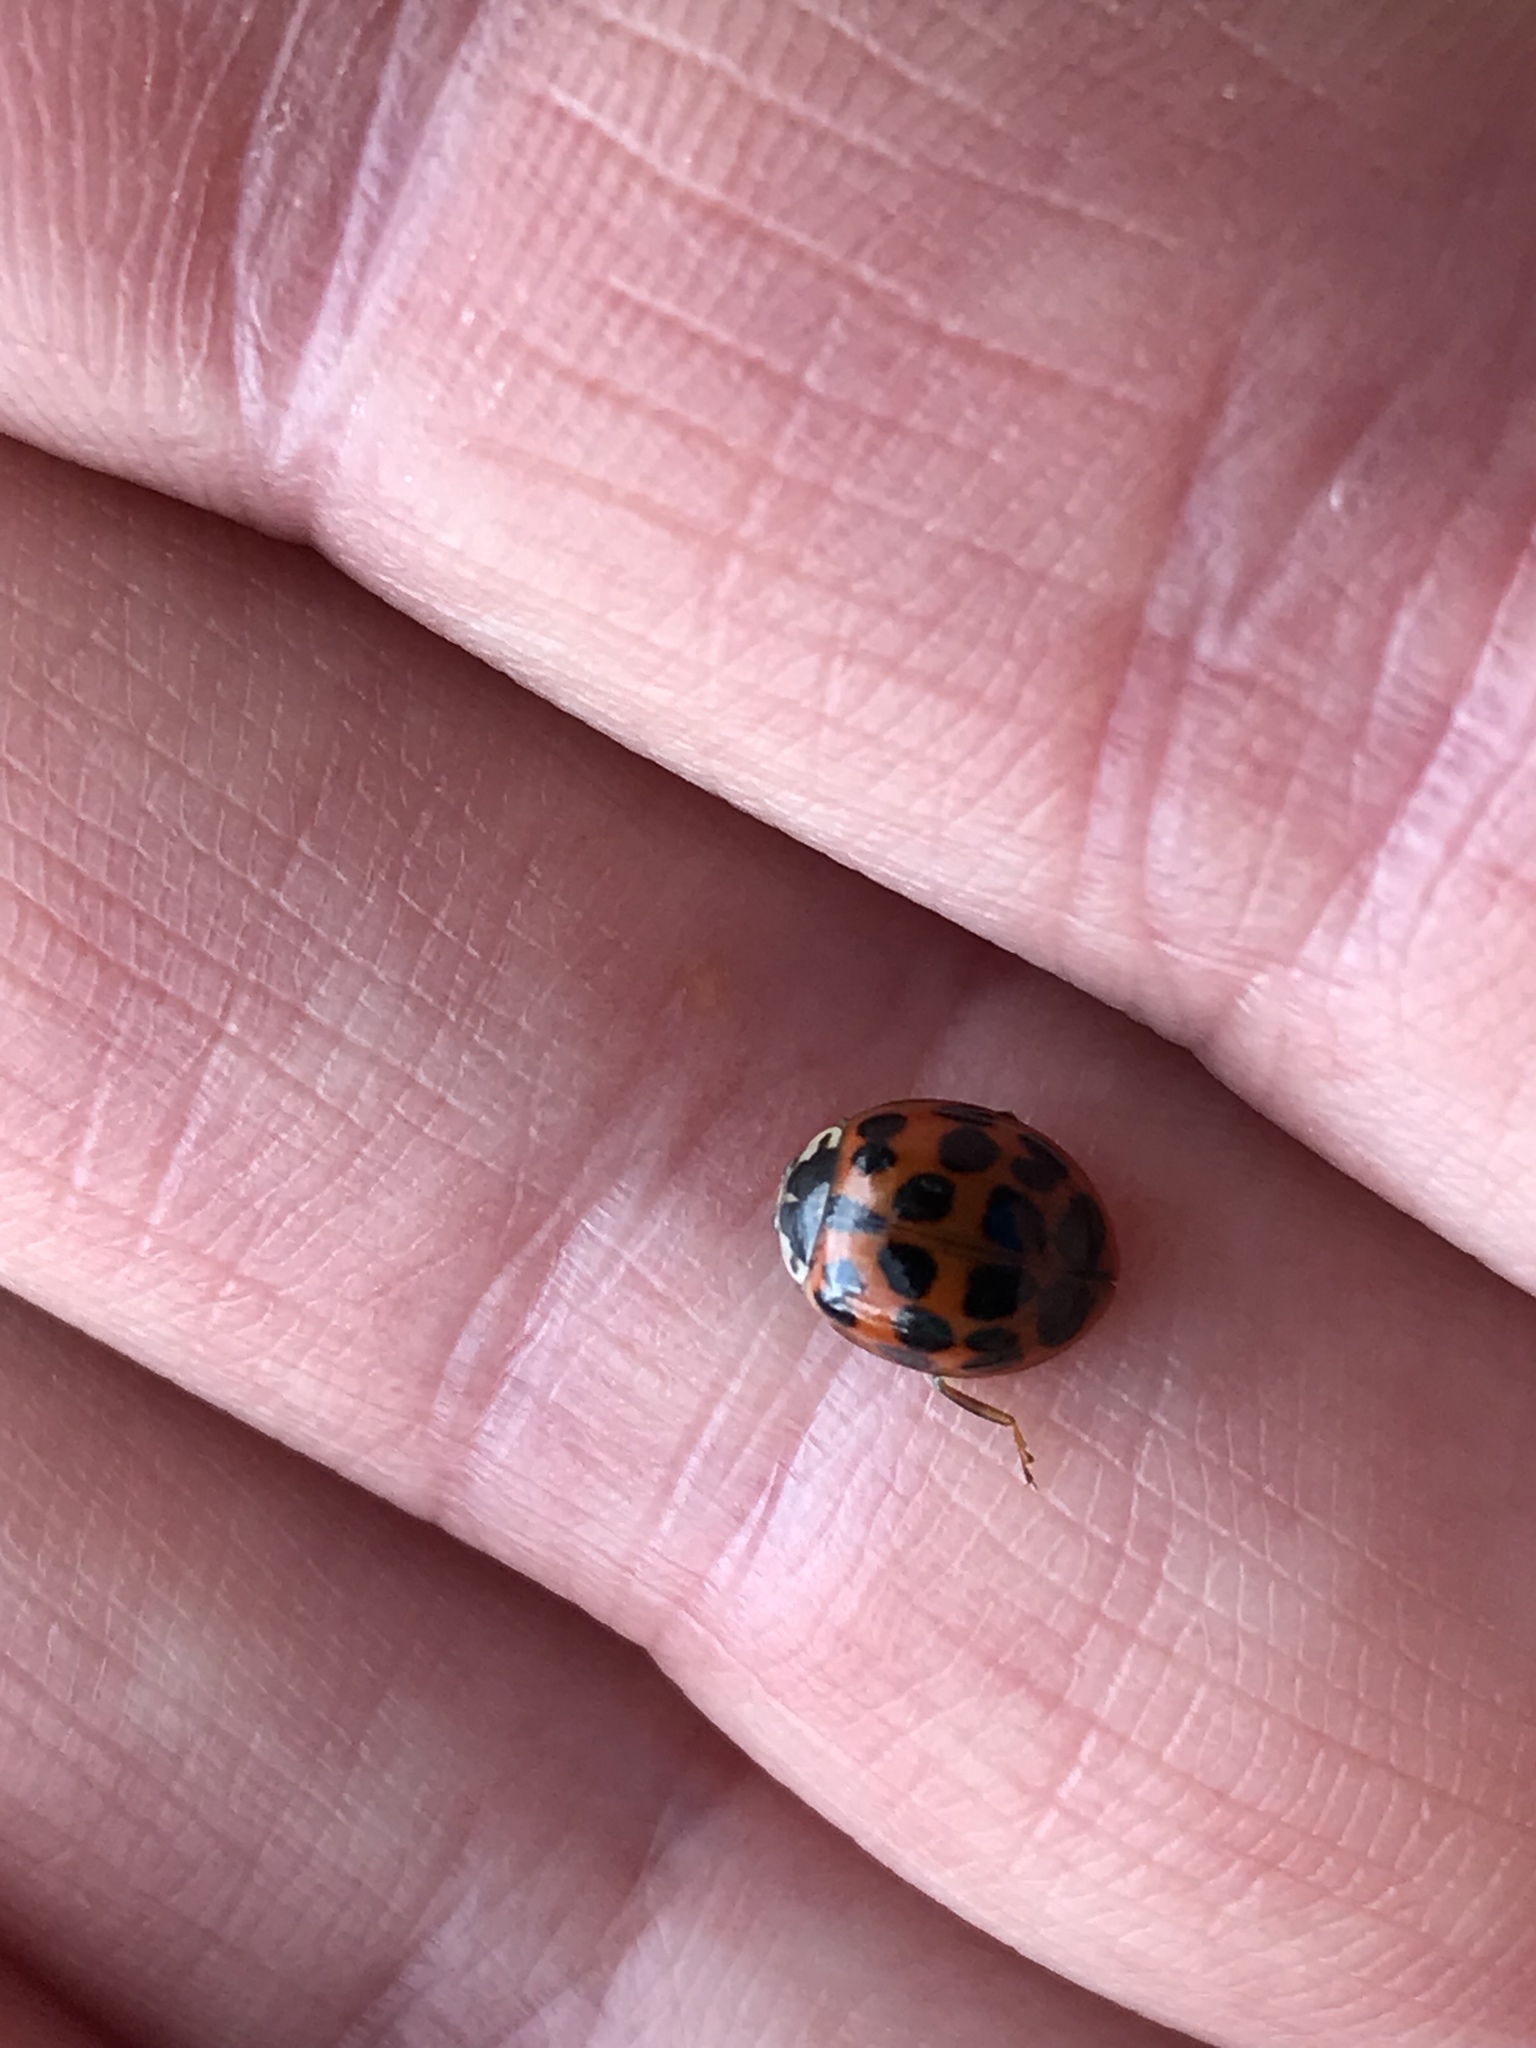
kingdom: Animalia
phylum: Arthropoda
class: Insecta
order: Coleoptera
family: Coccinellidae
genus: Harmonia
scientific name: Harmonia axyridis
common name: Harlequin ladybird
